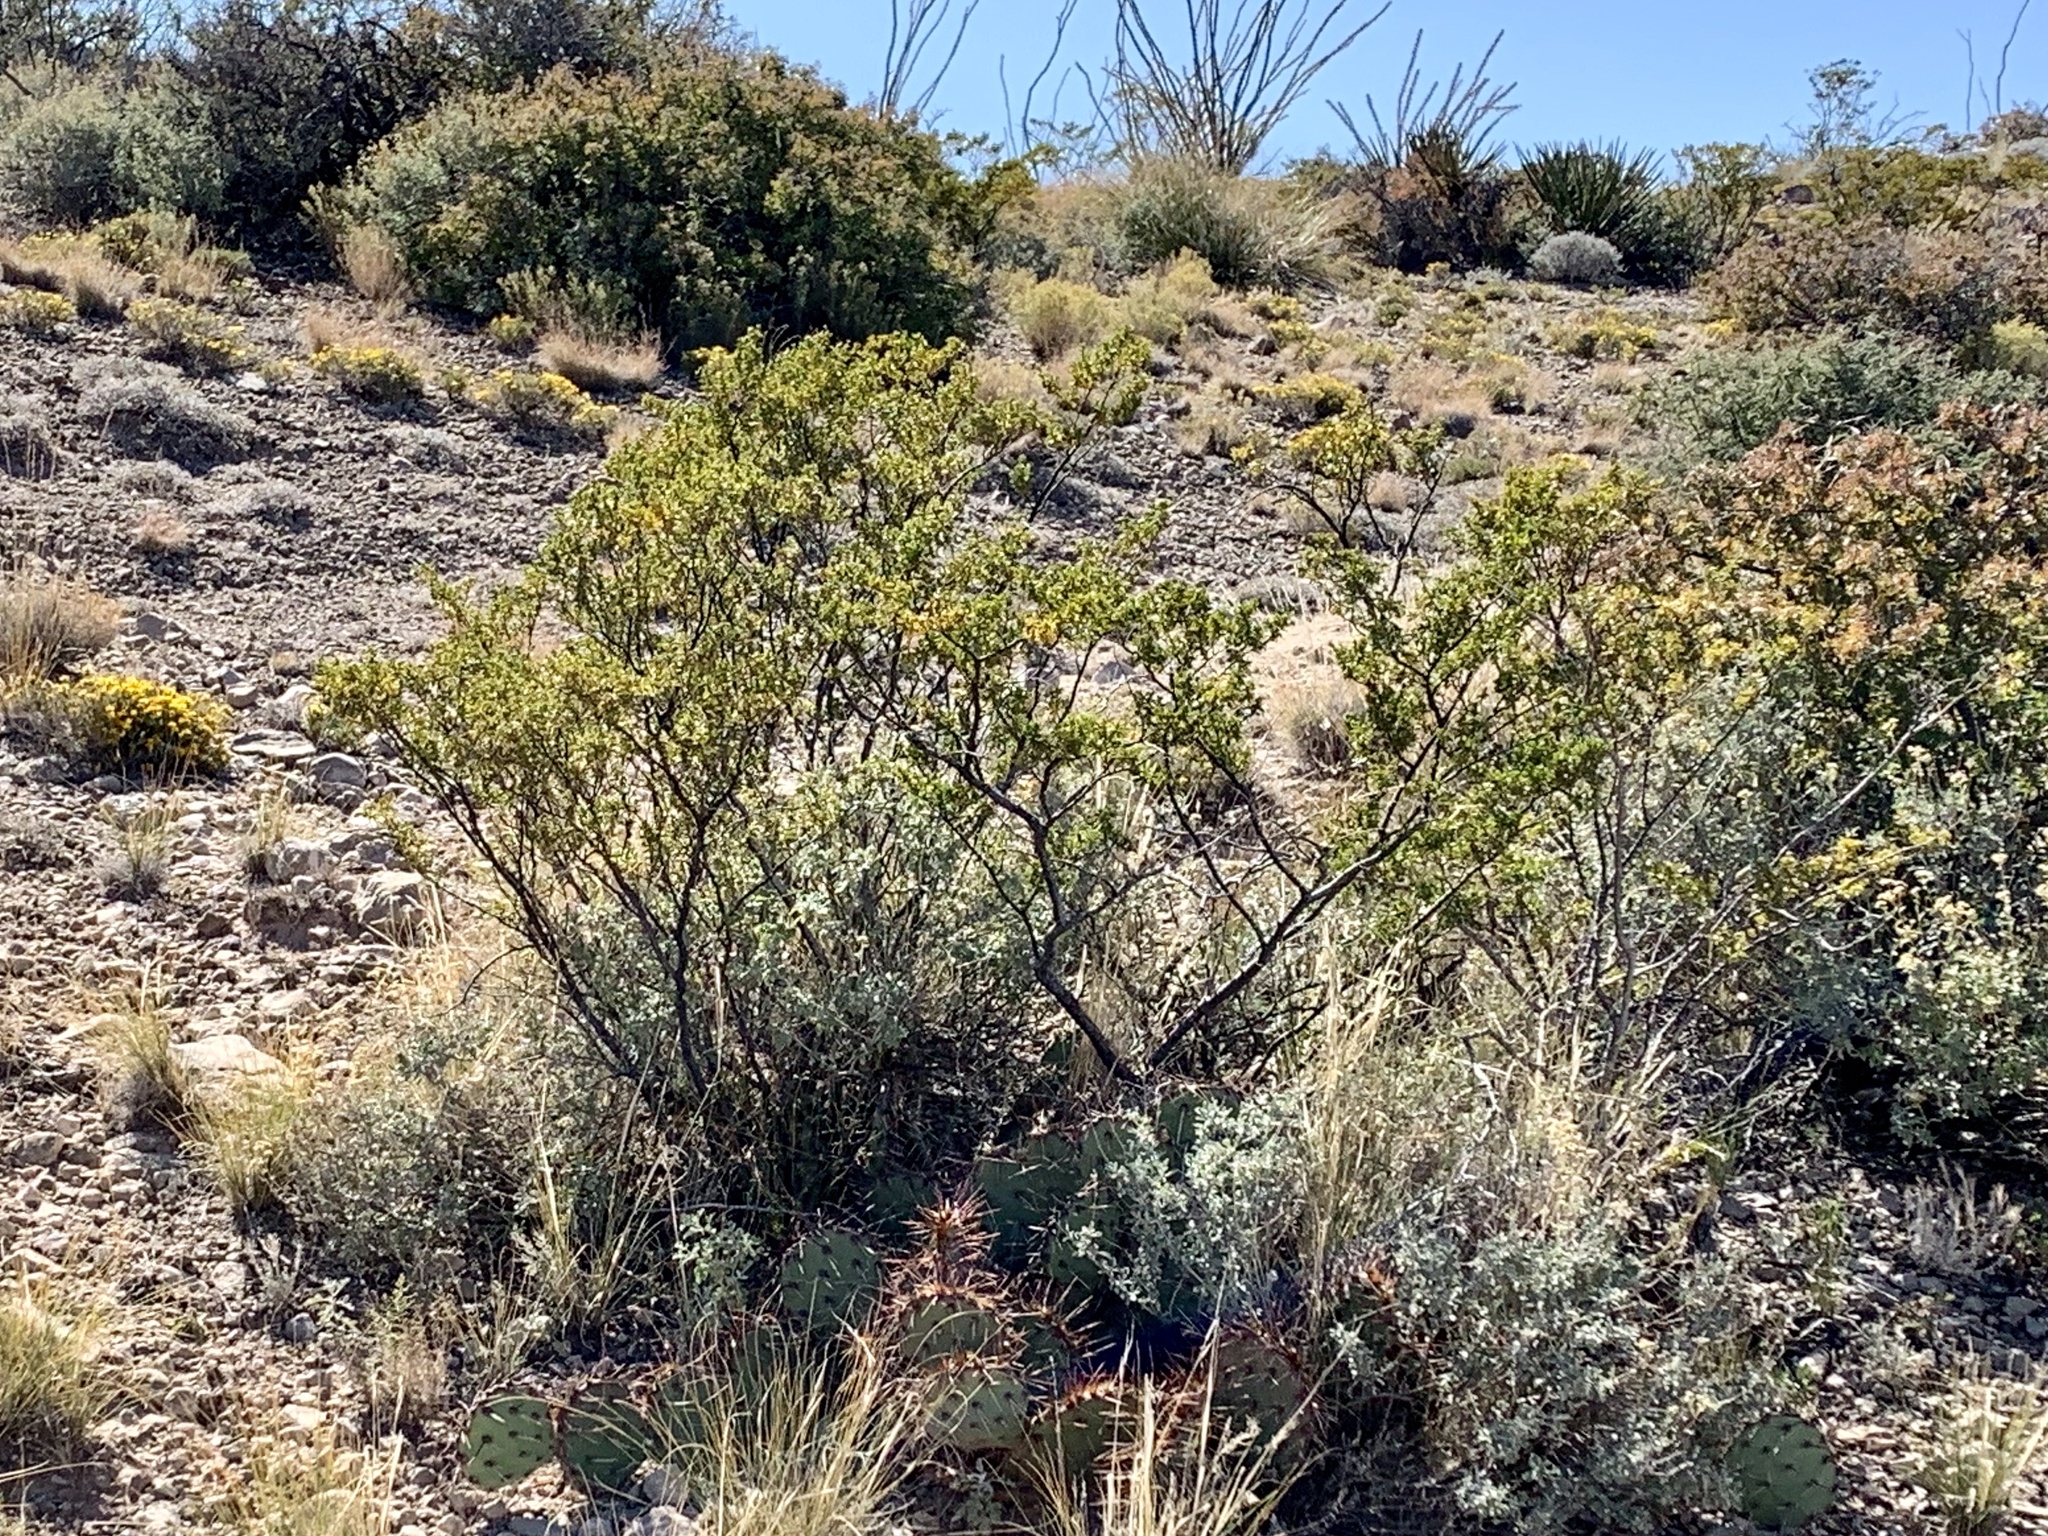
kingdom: Plantae
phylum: Tracheophyta
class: Magnoliopsida
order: Zygophyllales
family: Zygophyllaceae
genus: Larrea
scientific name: Larrea tridentata
